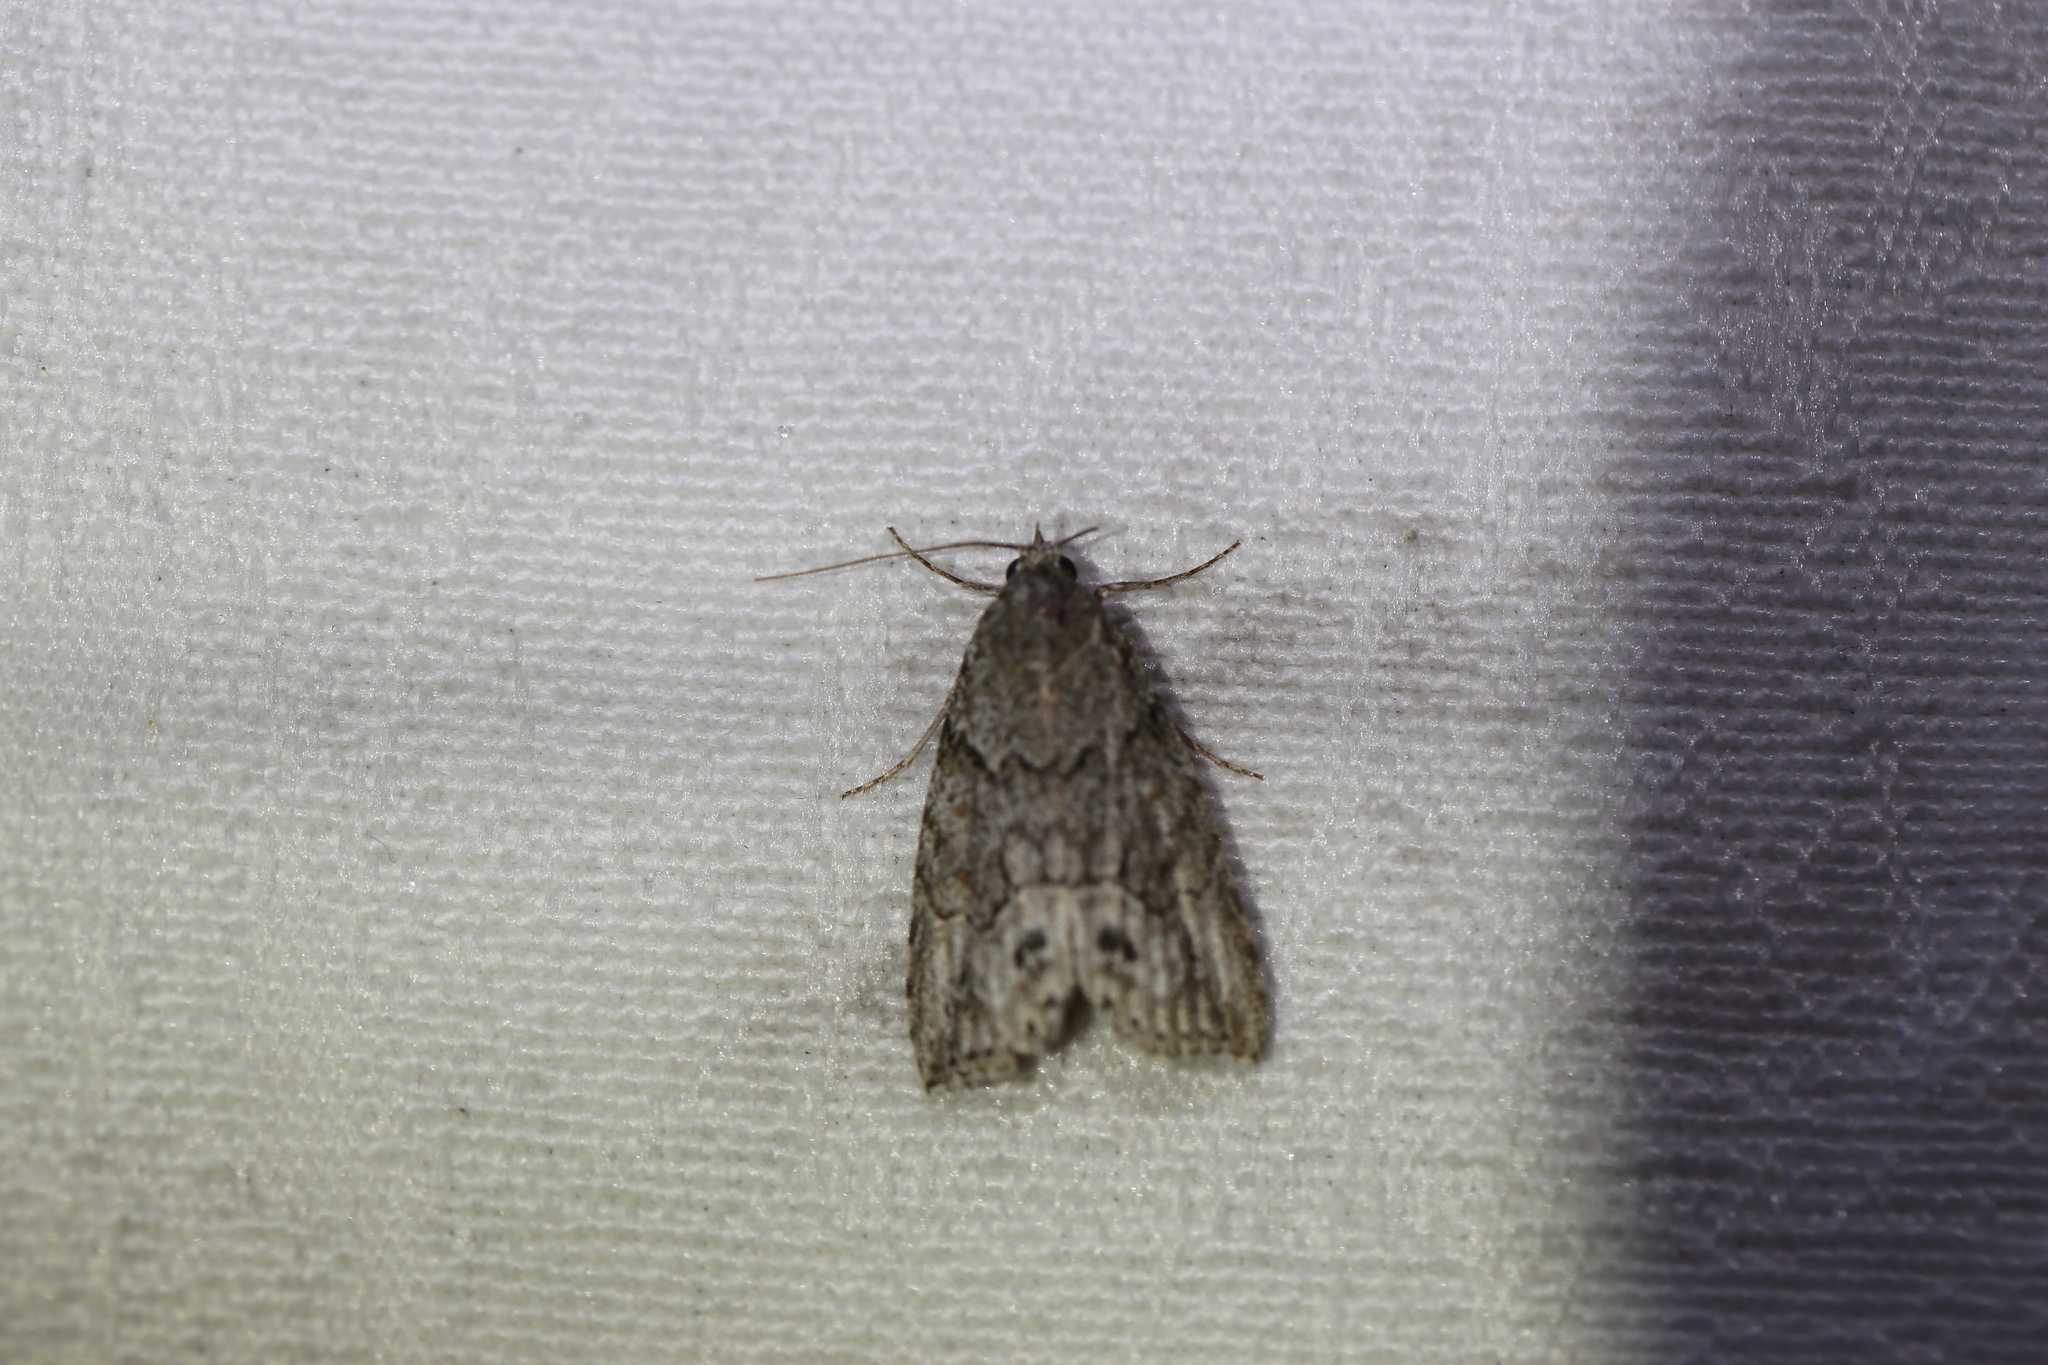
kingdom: Animalia
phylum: Arthropoda
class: Insecta
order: Lepidoptera
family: Nolidae
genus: Calathusa
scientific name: Calathusa basicunea
